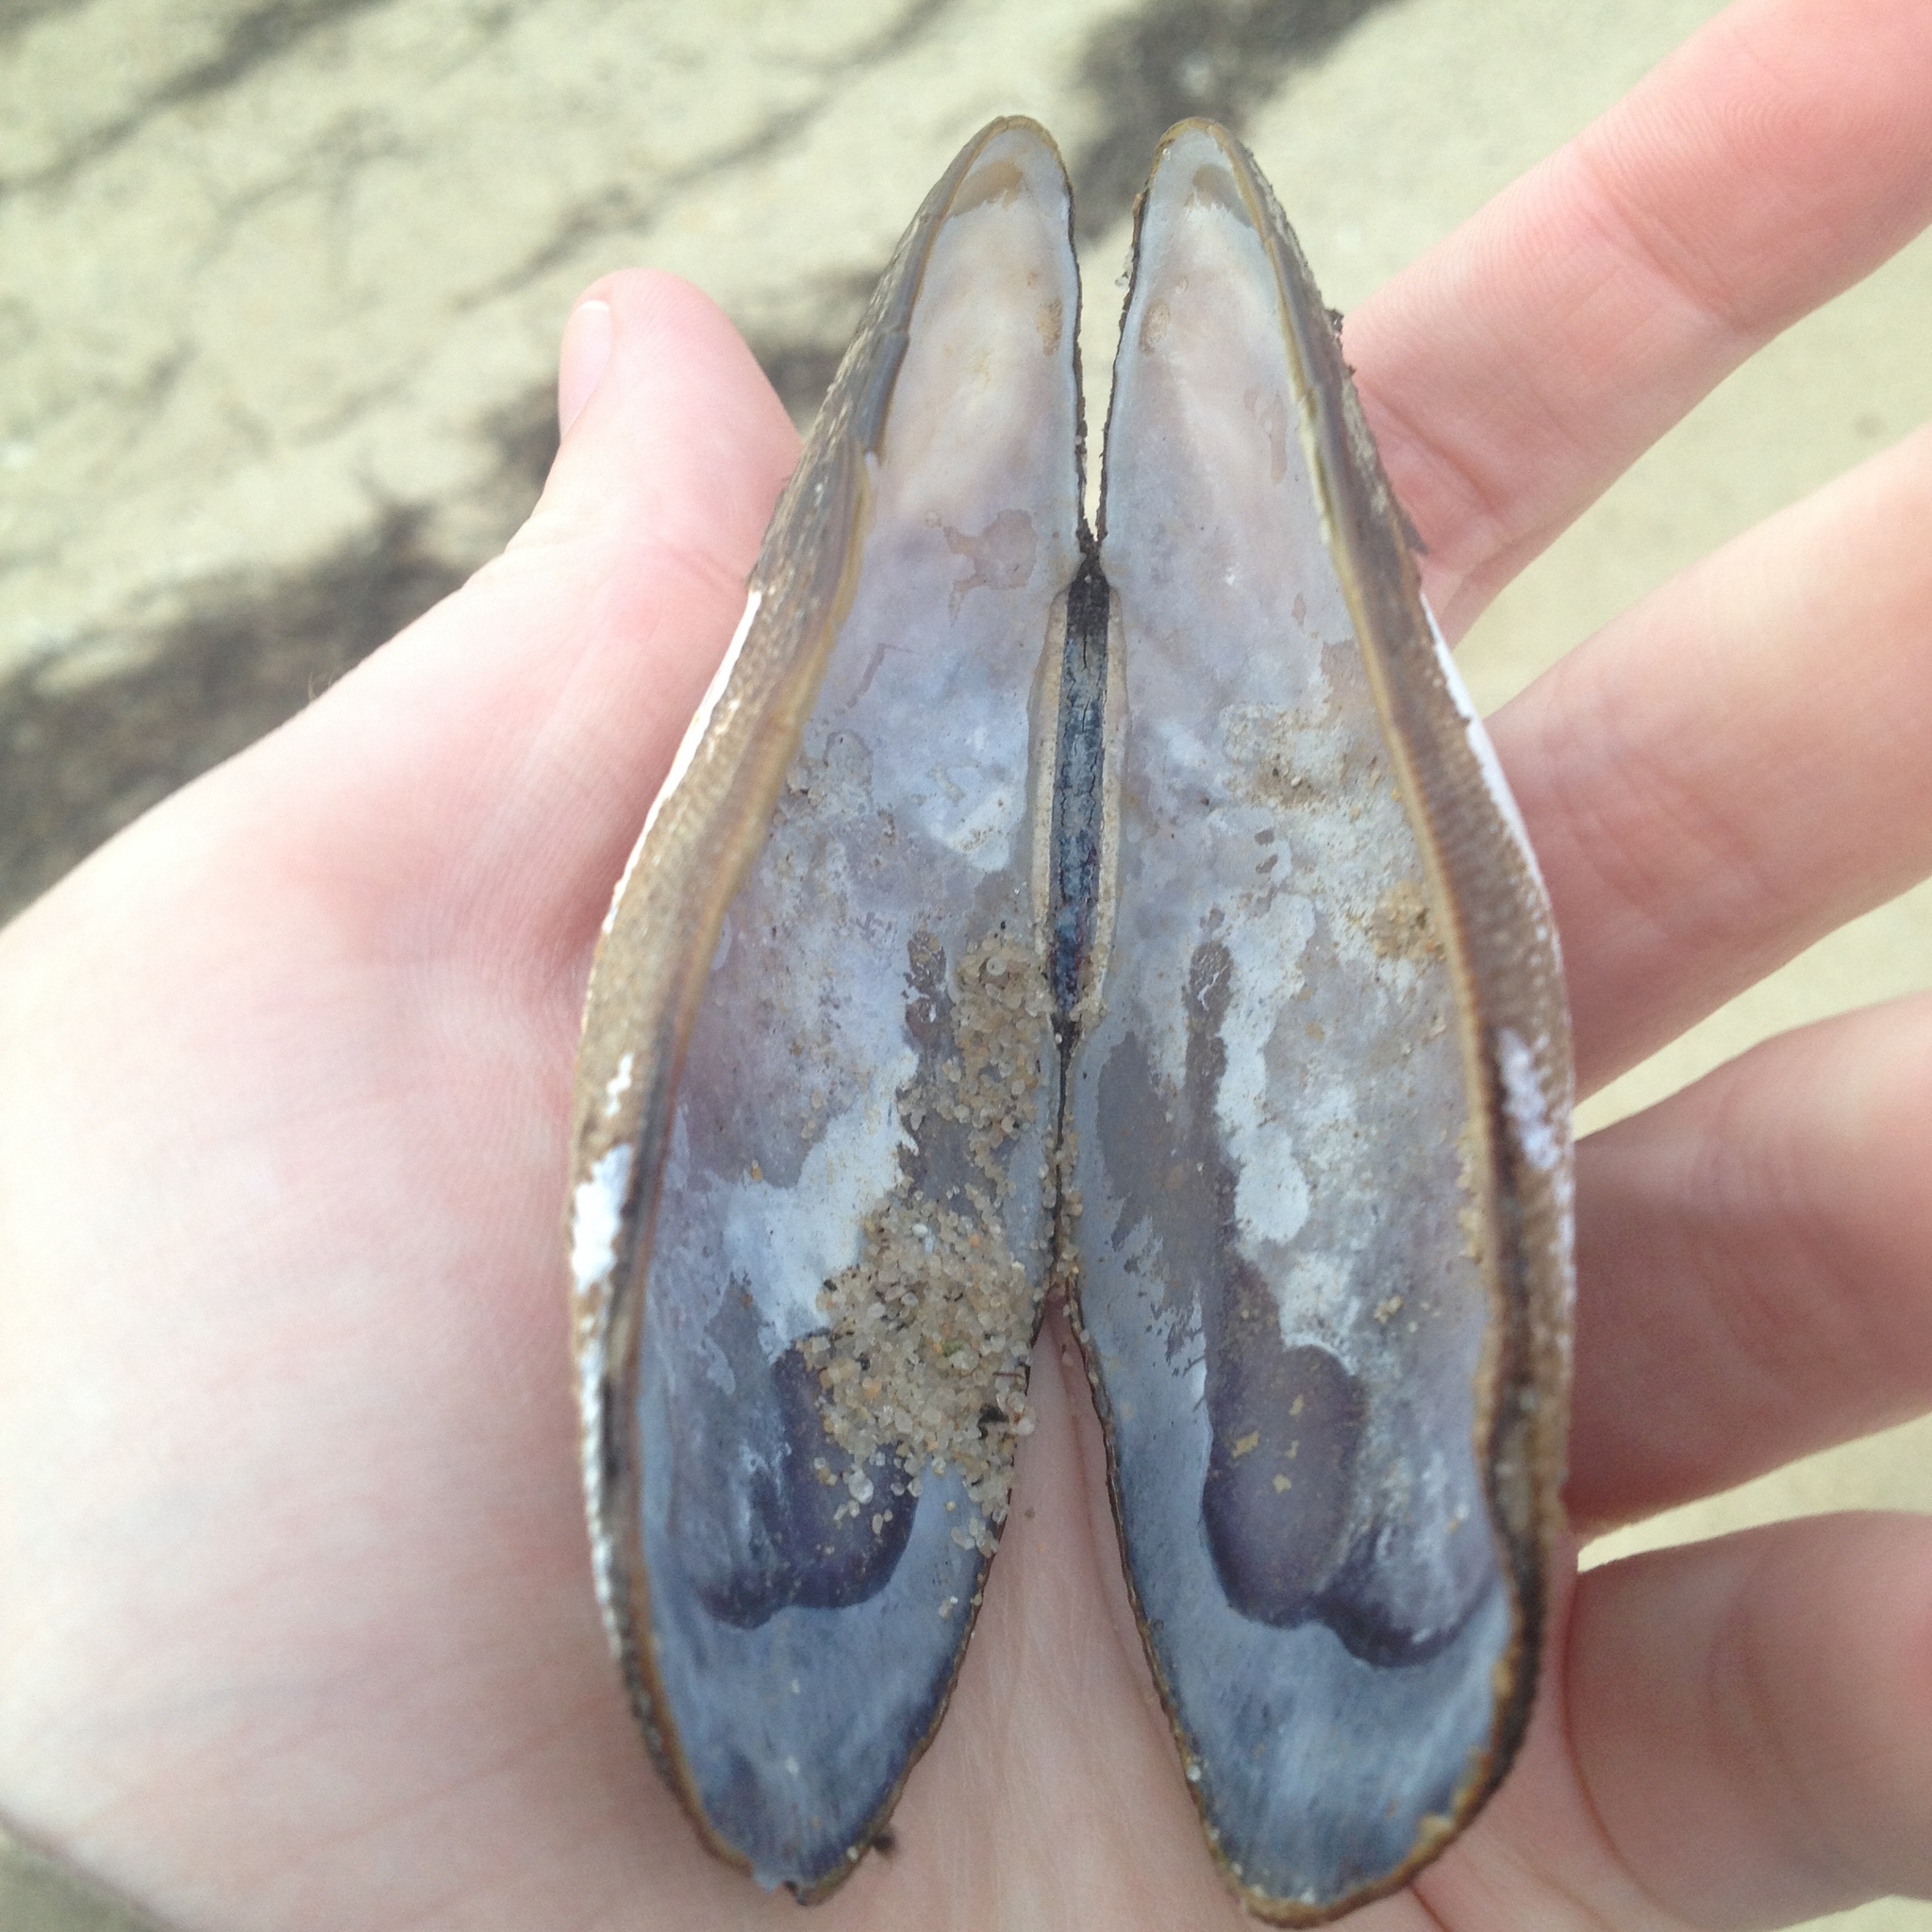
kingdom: Animalia
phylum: Mollusca
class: Bivalvia
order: Mytilida
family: Mytilidae
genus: Geukensia
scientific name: Geukensia demissa
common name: Ribbed mussel
